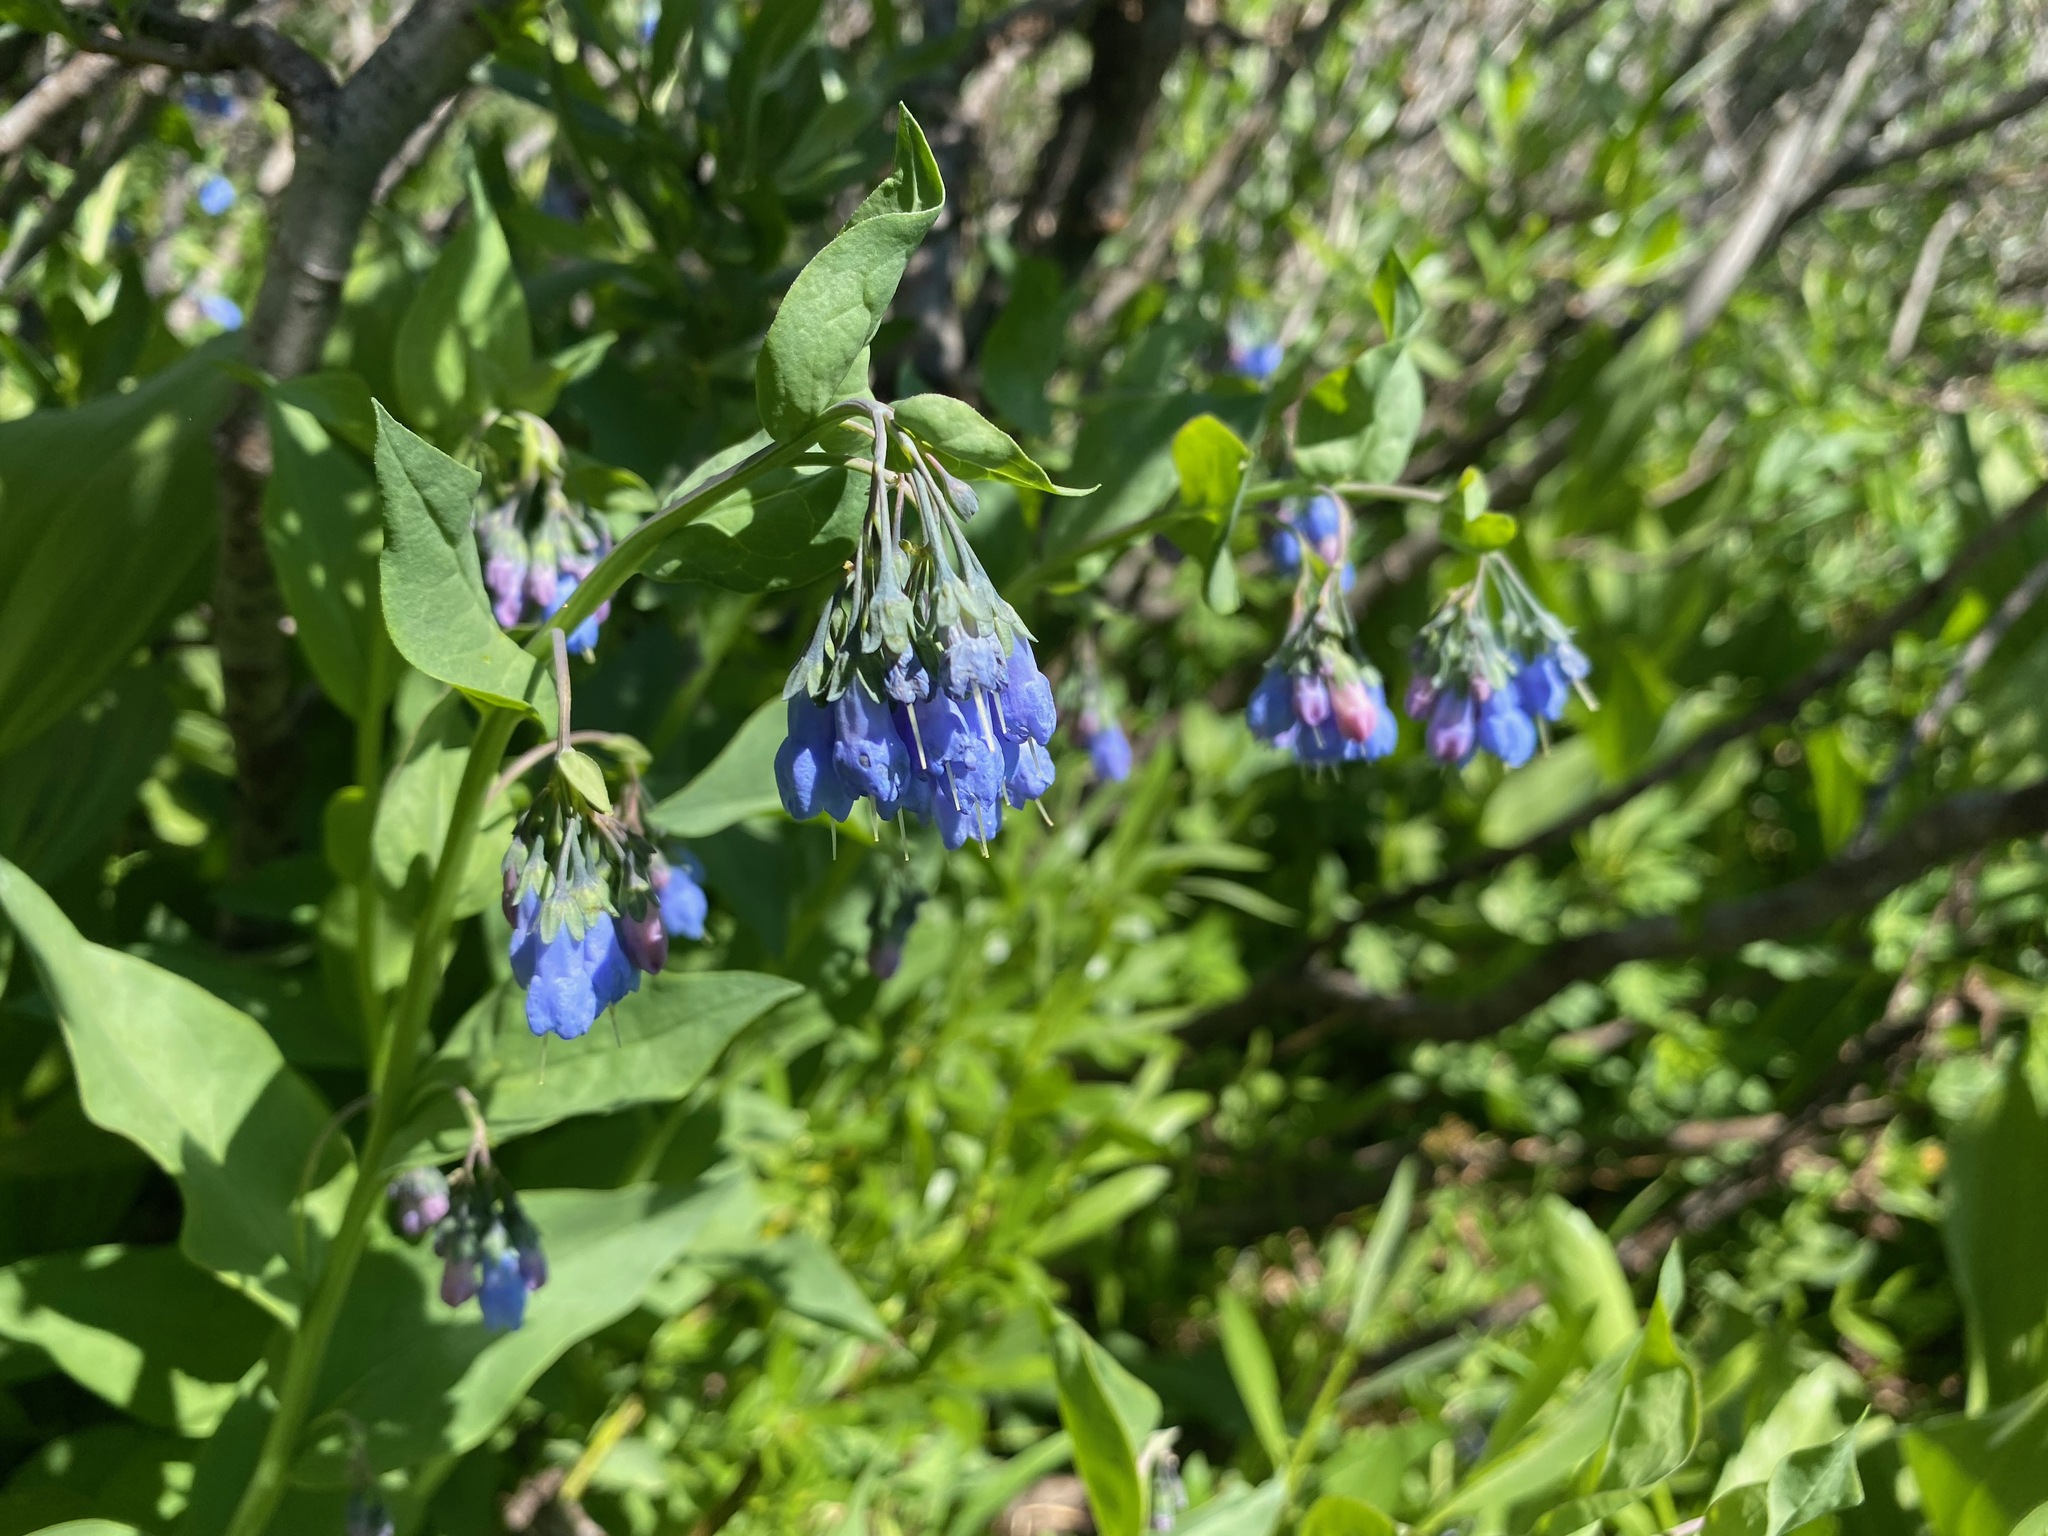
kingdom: Plantae
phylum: Tracheophyta
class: Magnoliopsida
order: Boraginales
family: Boraginaceae
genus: Mertensia
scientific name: Mertensia ciliata
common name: Tall chiming-bells
